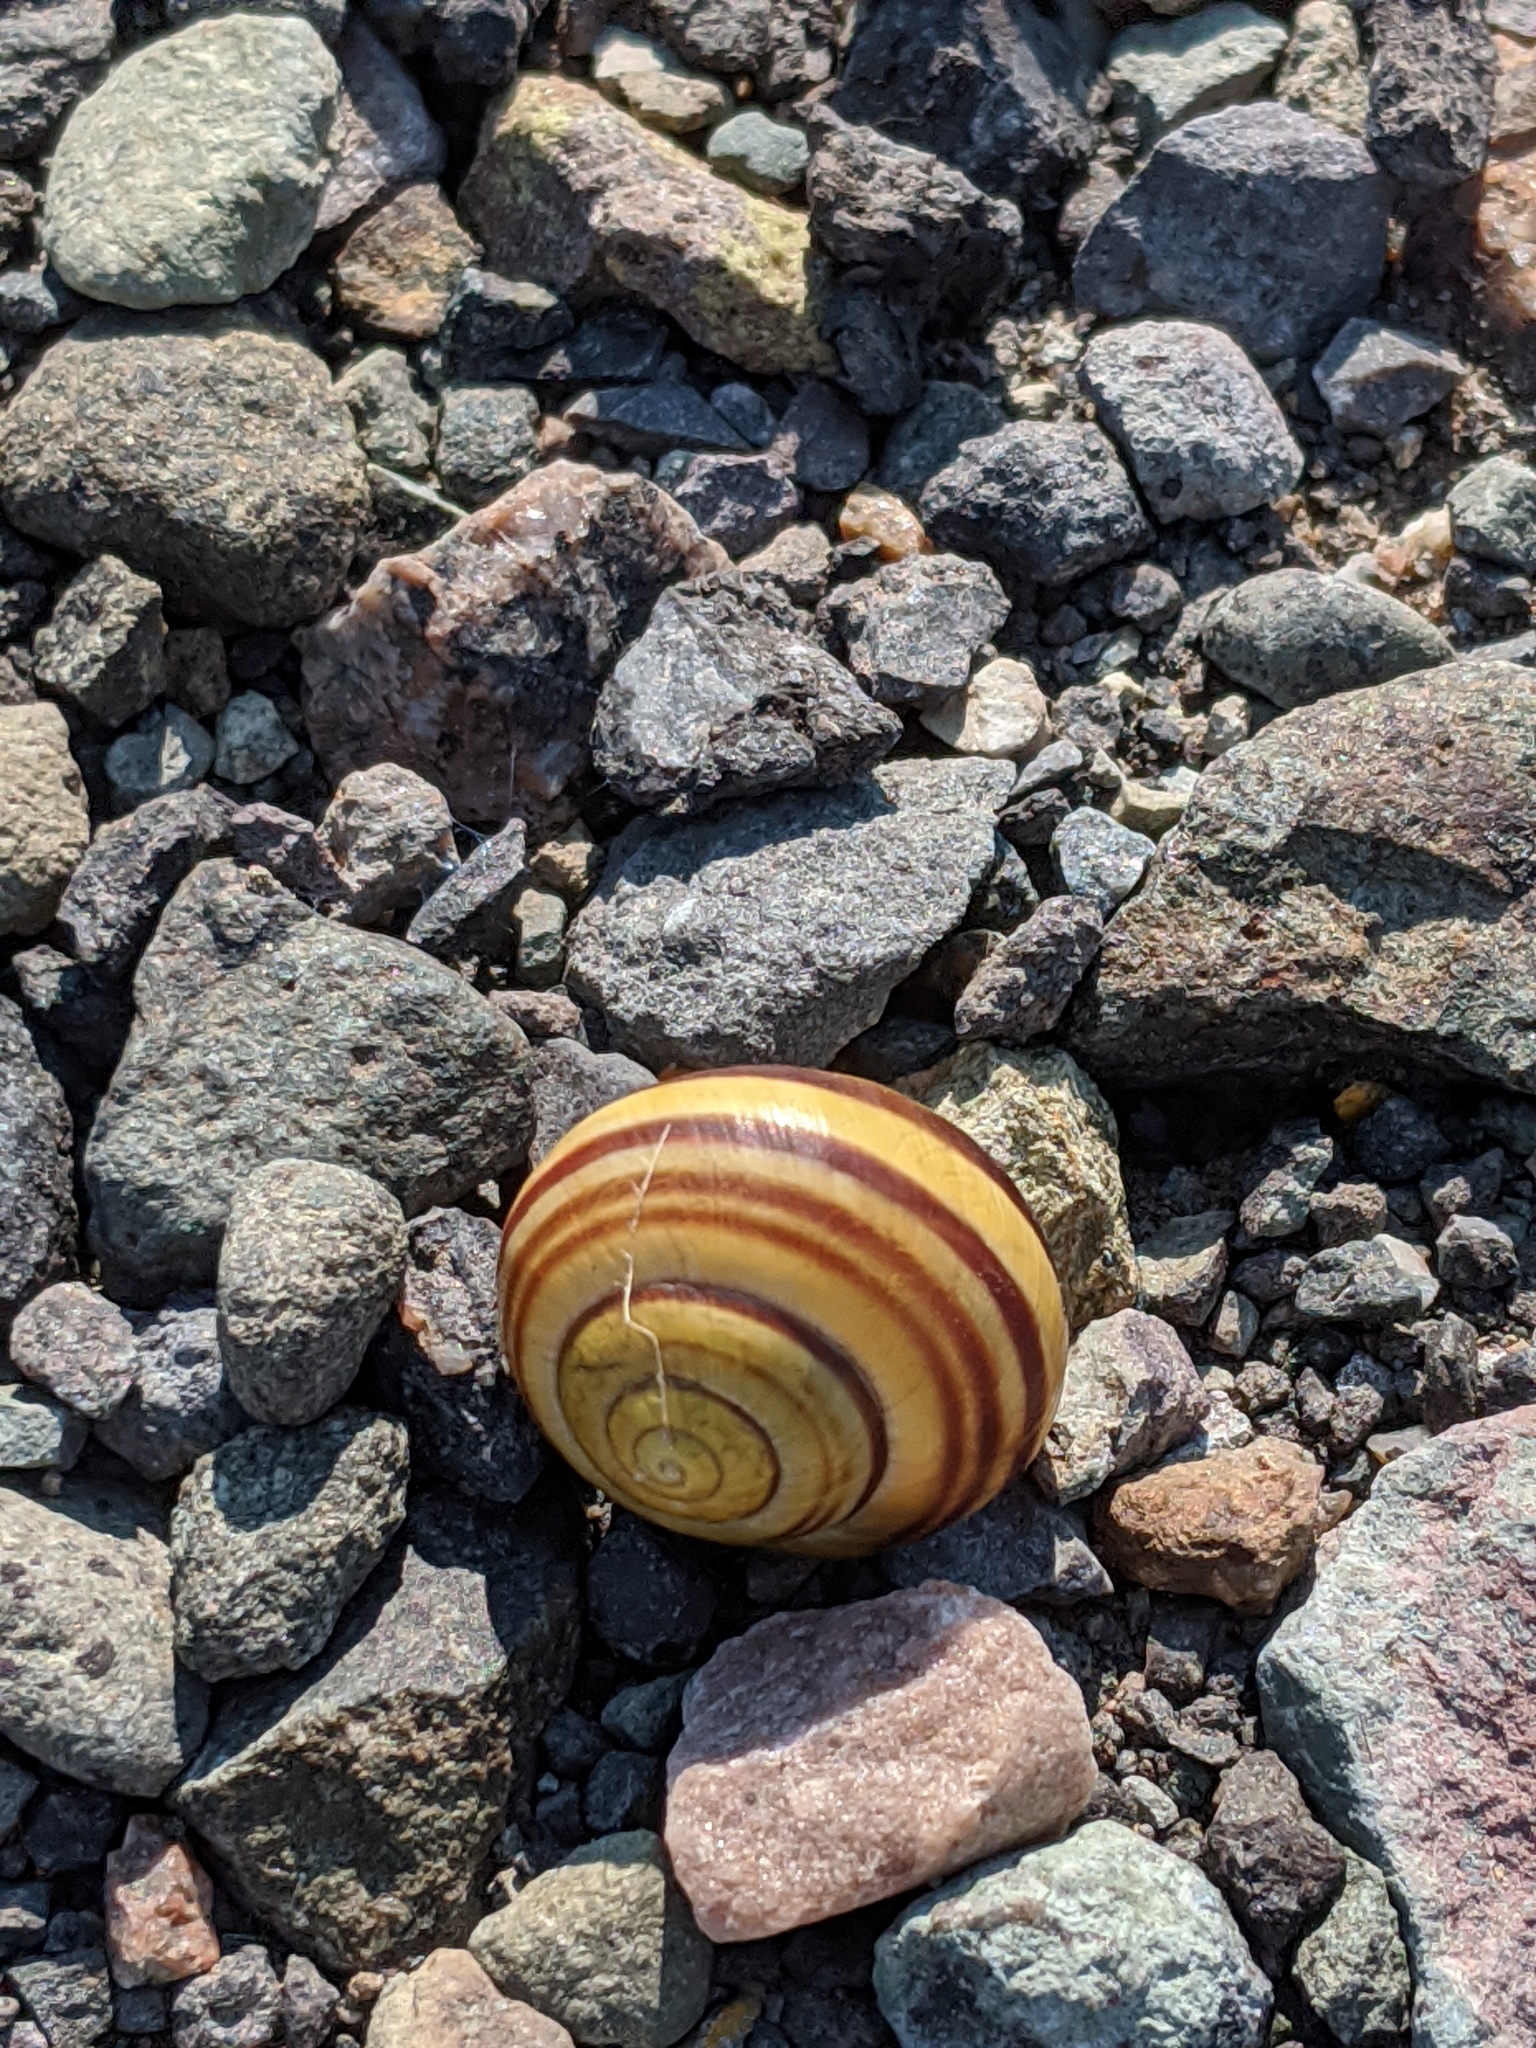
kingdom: Animalia
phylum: Mollusca
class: Gastropoda
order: Stylommatophora
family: Helicidae
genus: Cepaea
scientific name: Cepaea
